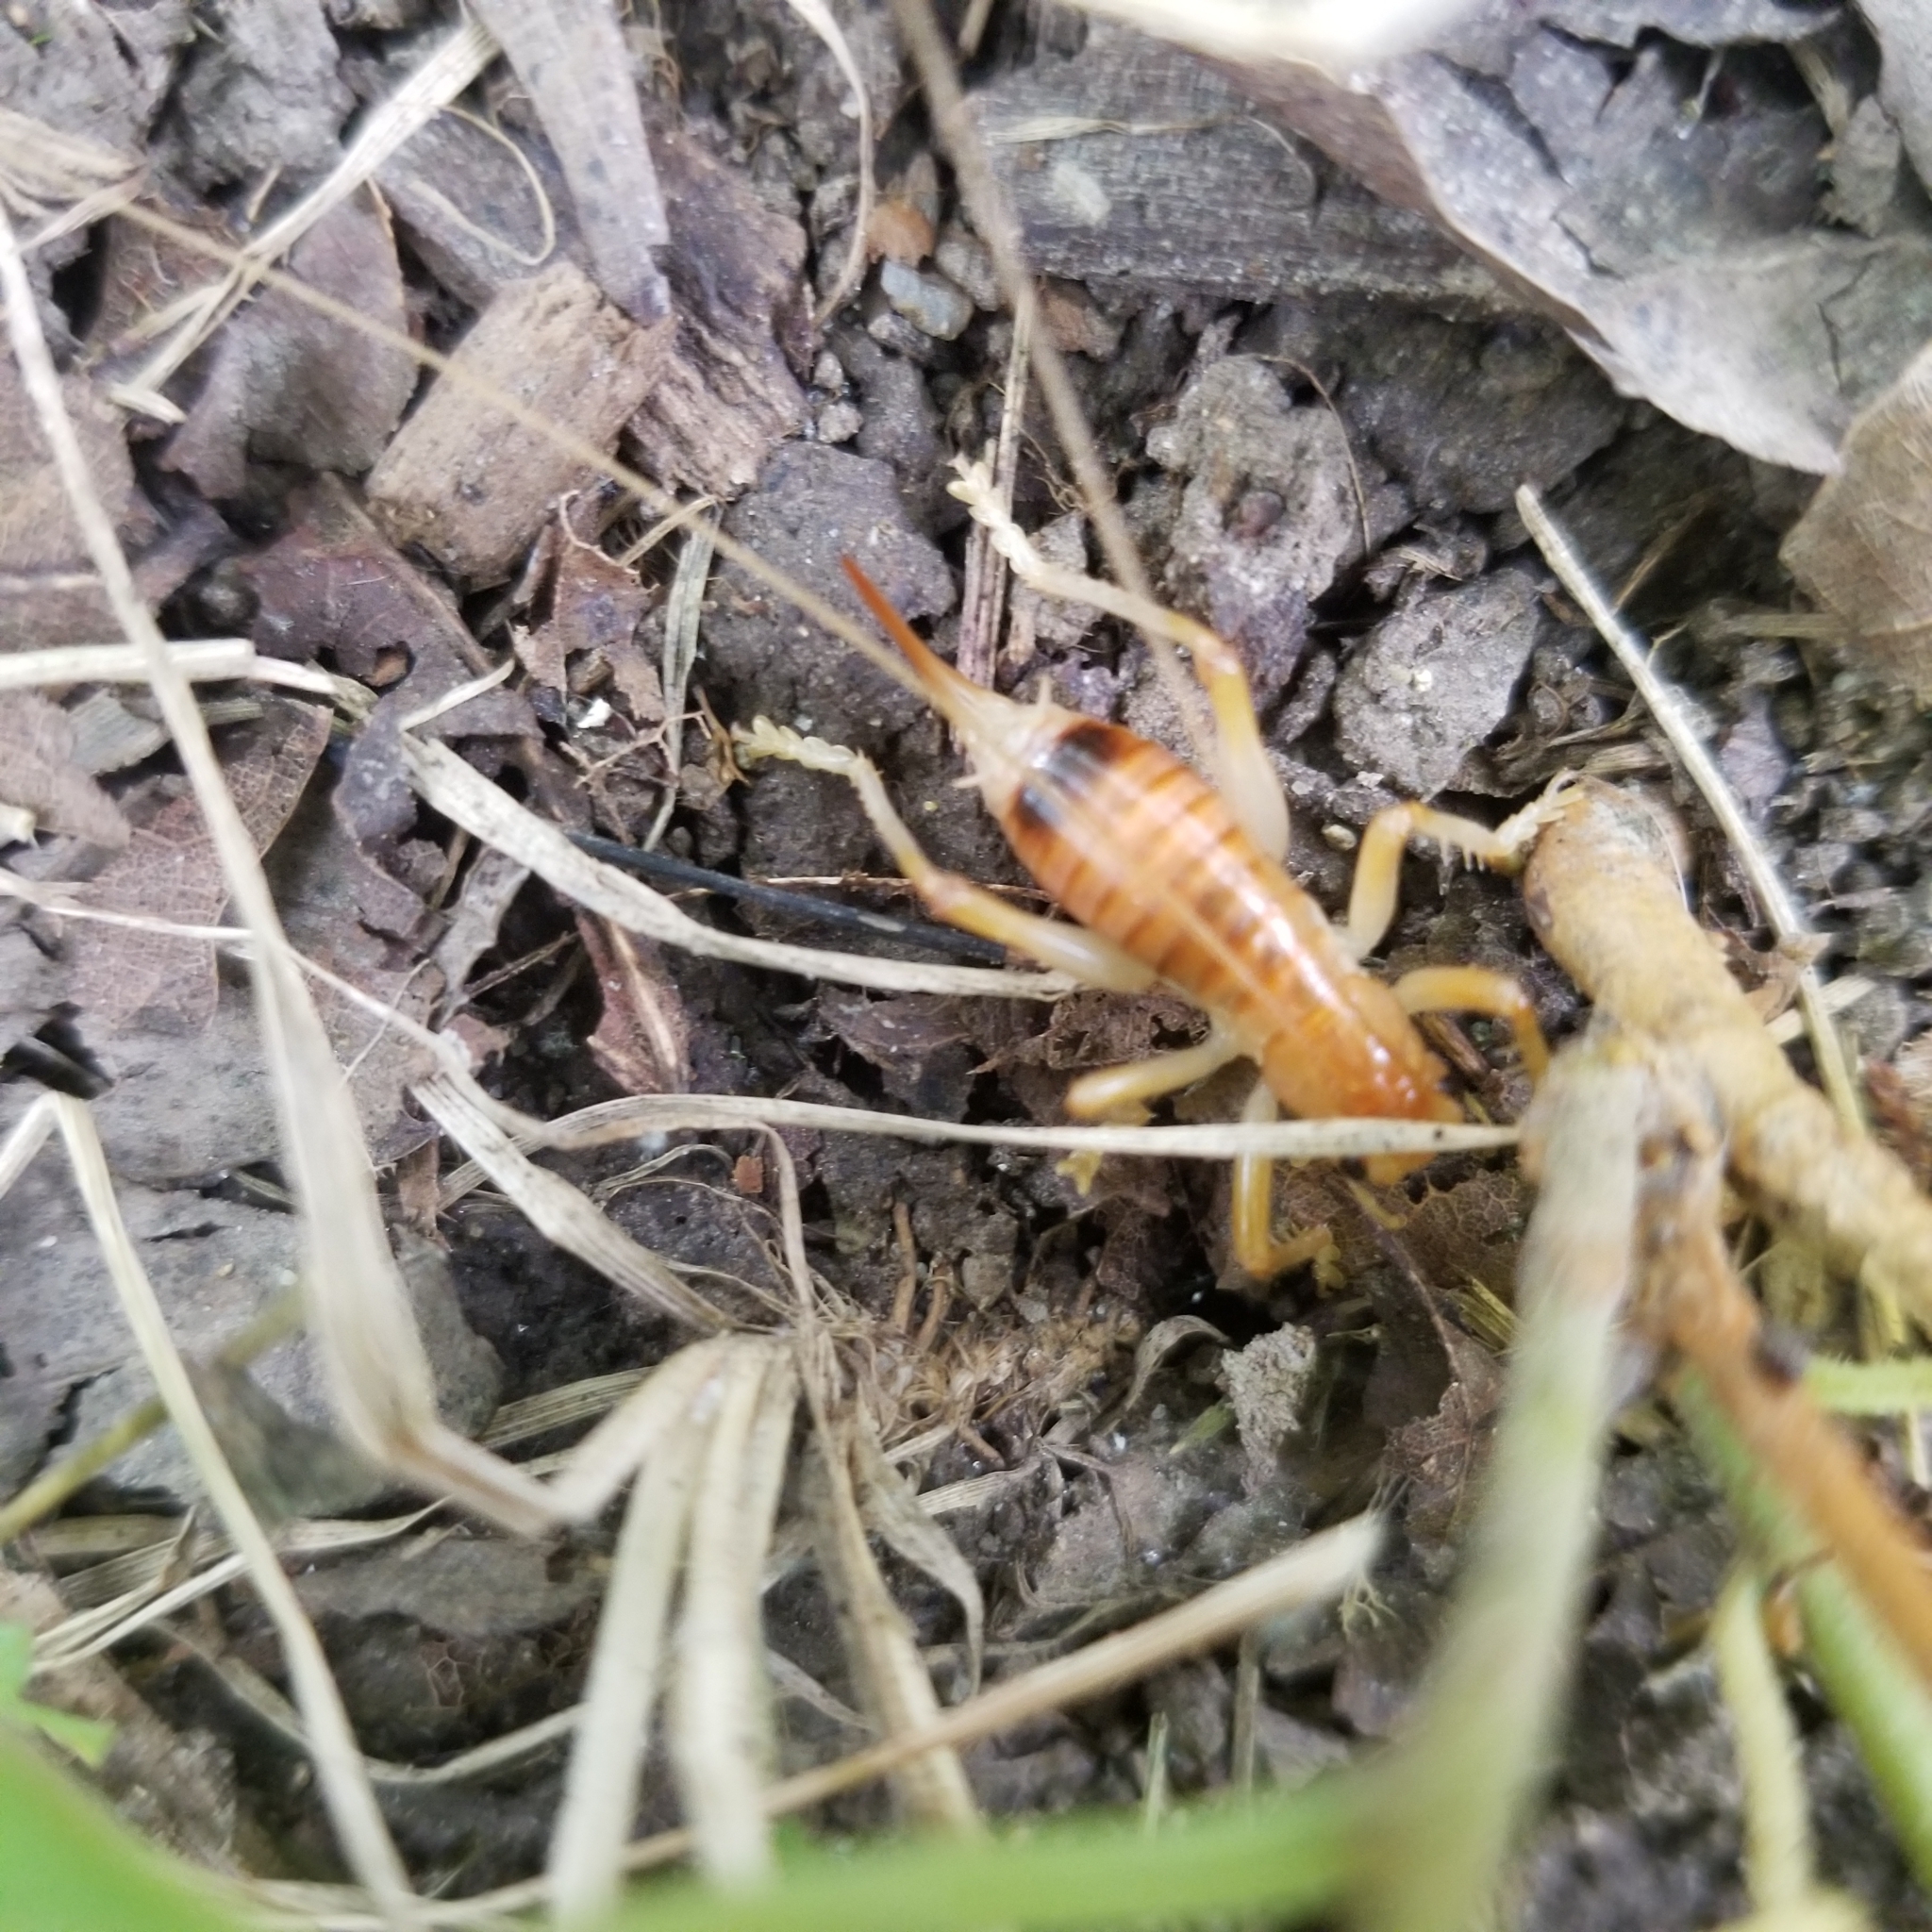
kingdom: Animalia
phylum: Arthropoda
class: Insecta
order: Orthoptera
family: Gryllacrididae
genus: Camptonotus
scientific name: Camptonotus carolinensis
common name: Carolina leaf-roller
